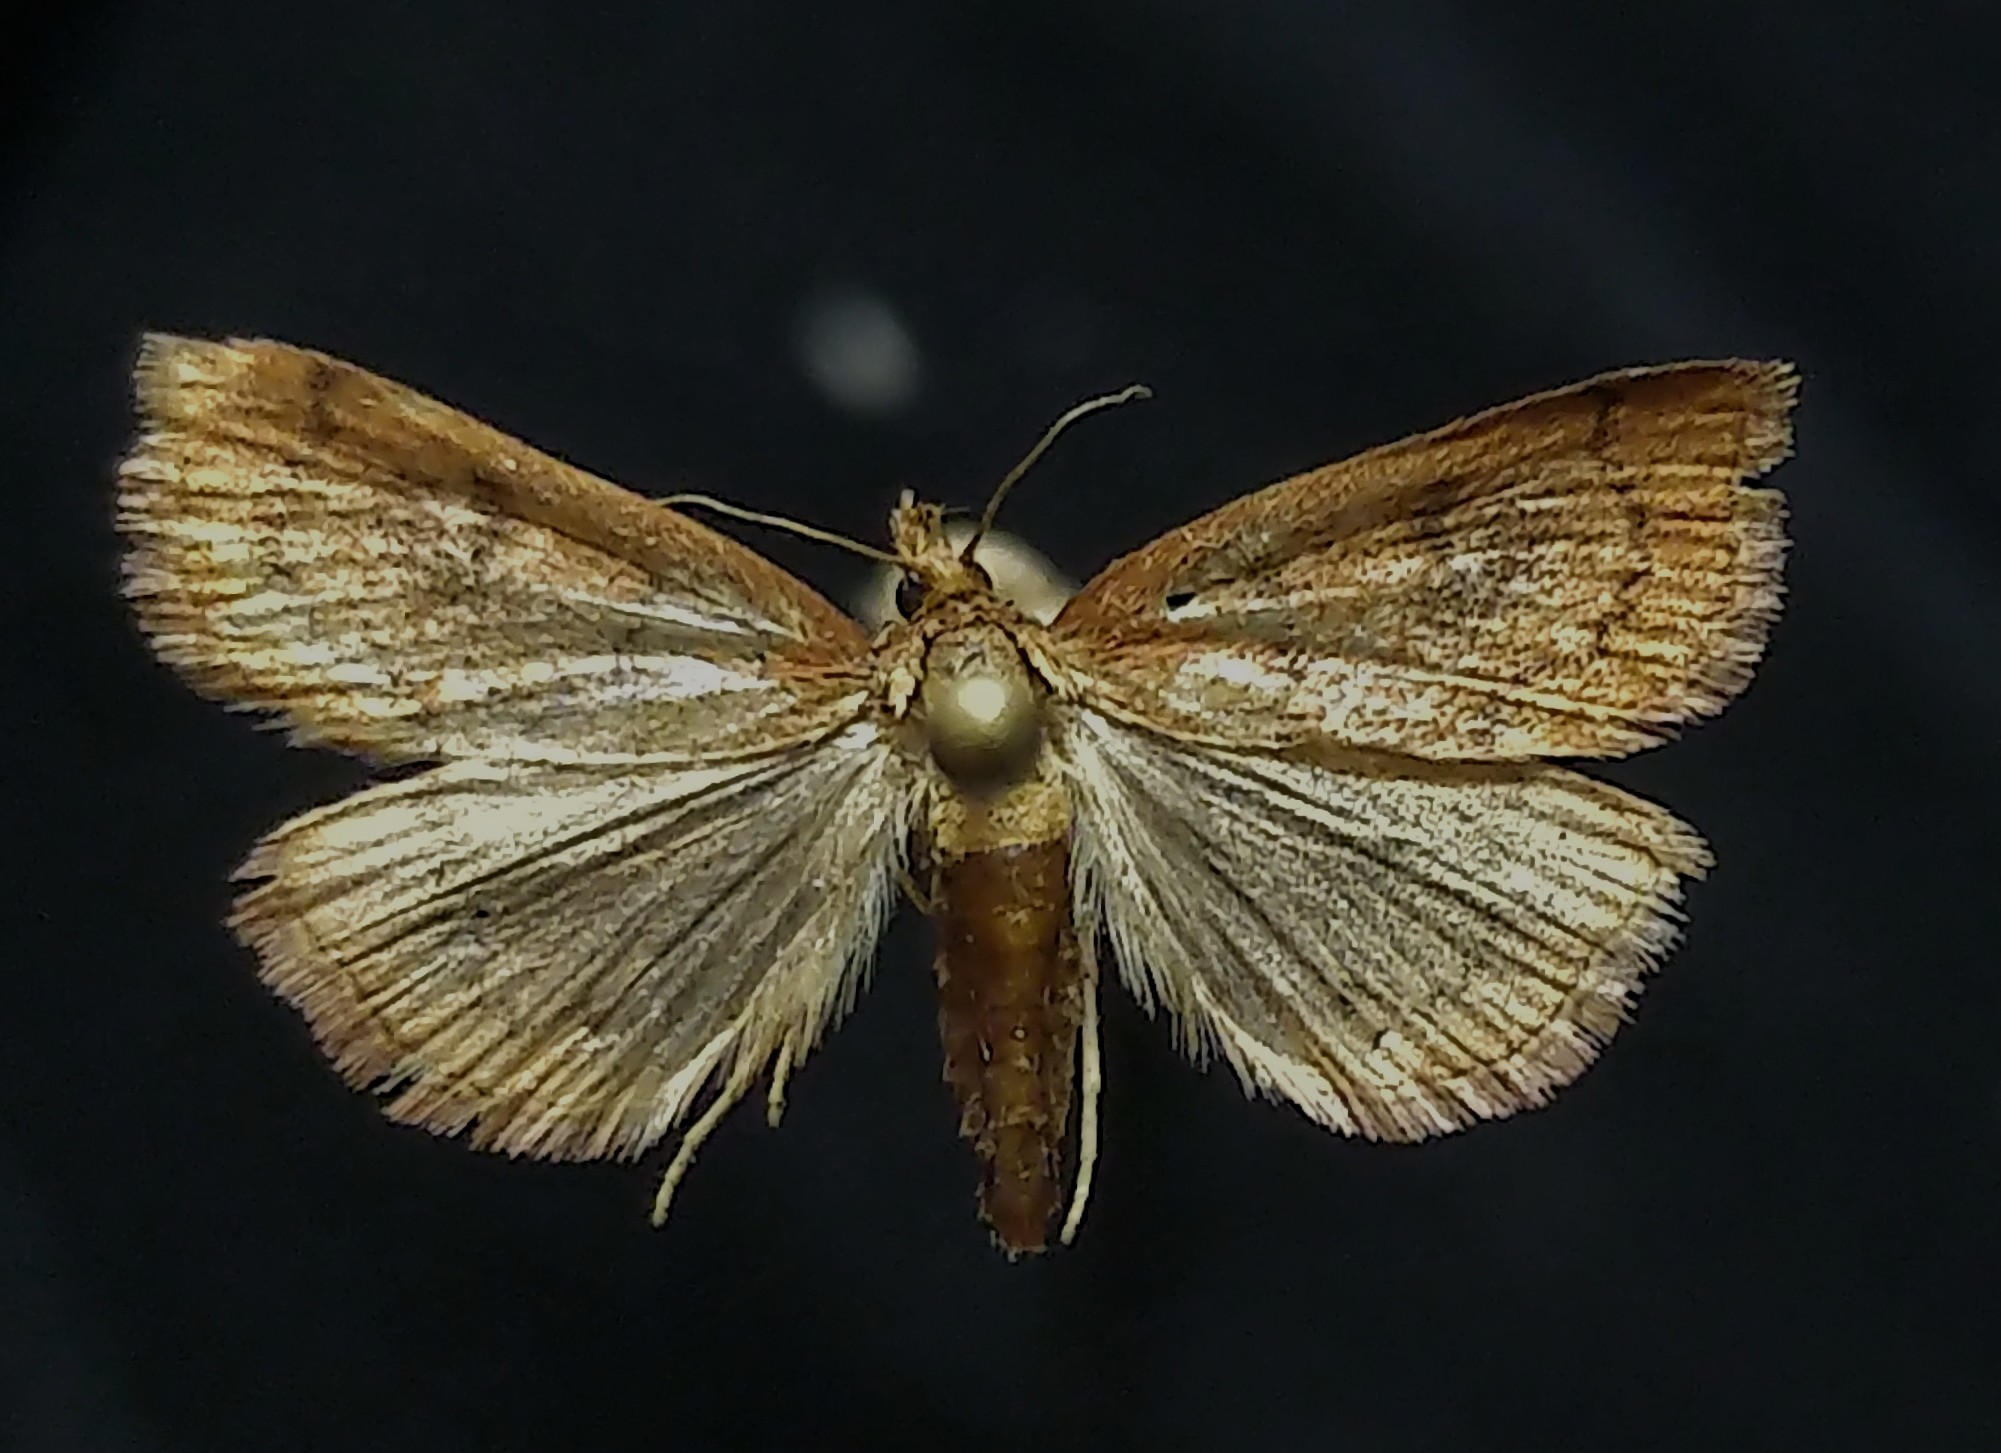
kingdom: Animalia
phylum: Arthropoda
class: Insecta
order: Lepidoptera
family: Crambidae
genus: Fumibotys
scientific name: Fumibotys fumalis
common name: Mint root borer moth
